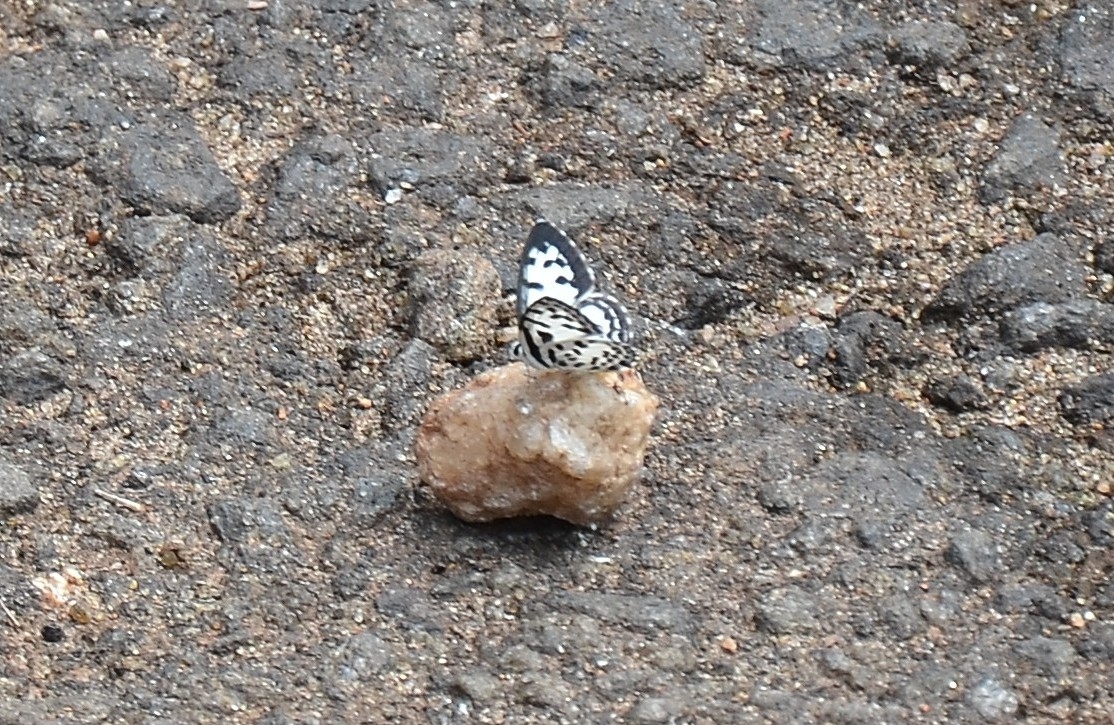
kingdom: Animalia
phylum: Arthropoda
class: Insecta
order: Lepidoptera
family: Lycaenidae
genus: Castalius
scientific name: Castalius rosimon
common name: Common pierrot
